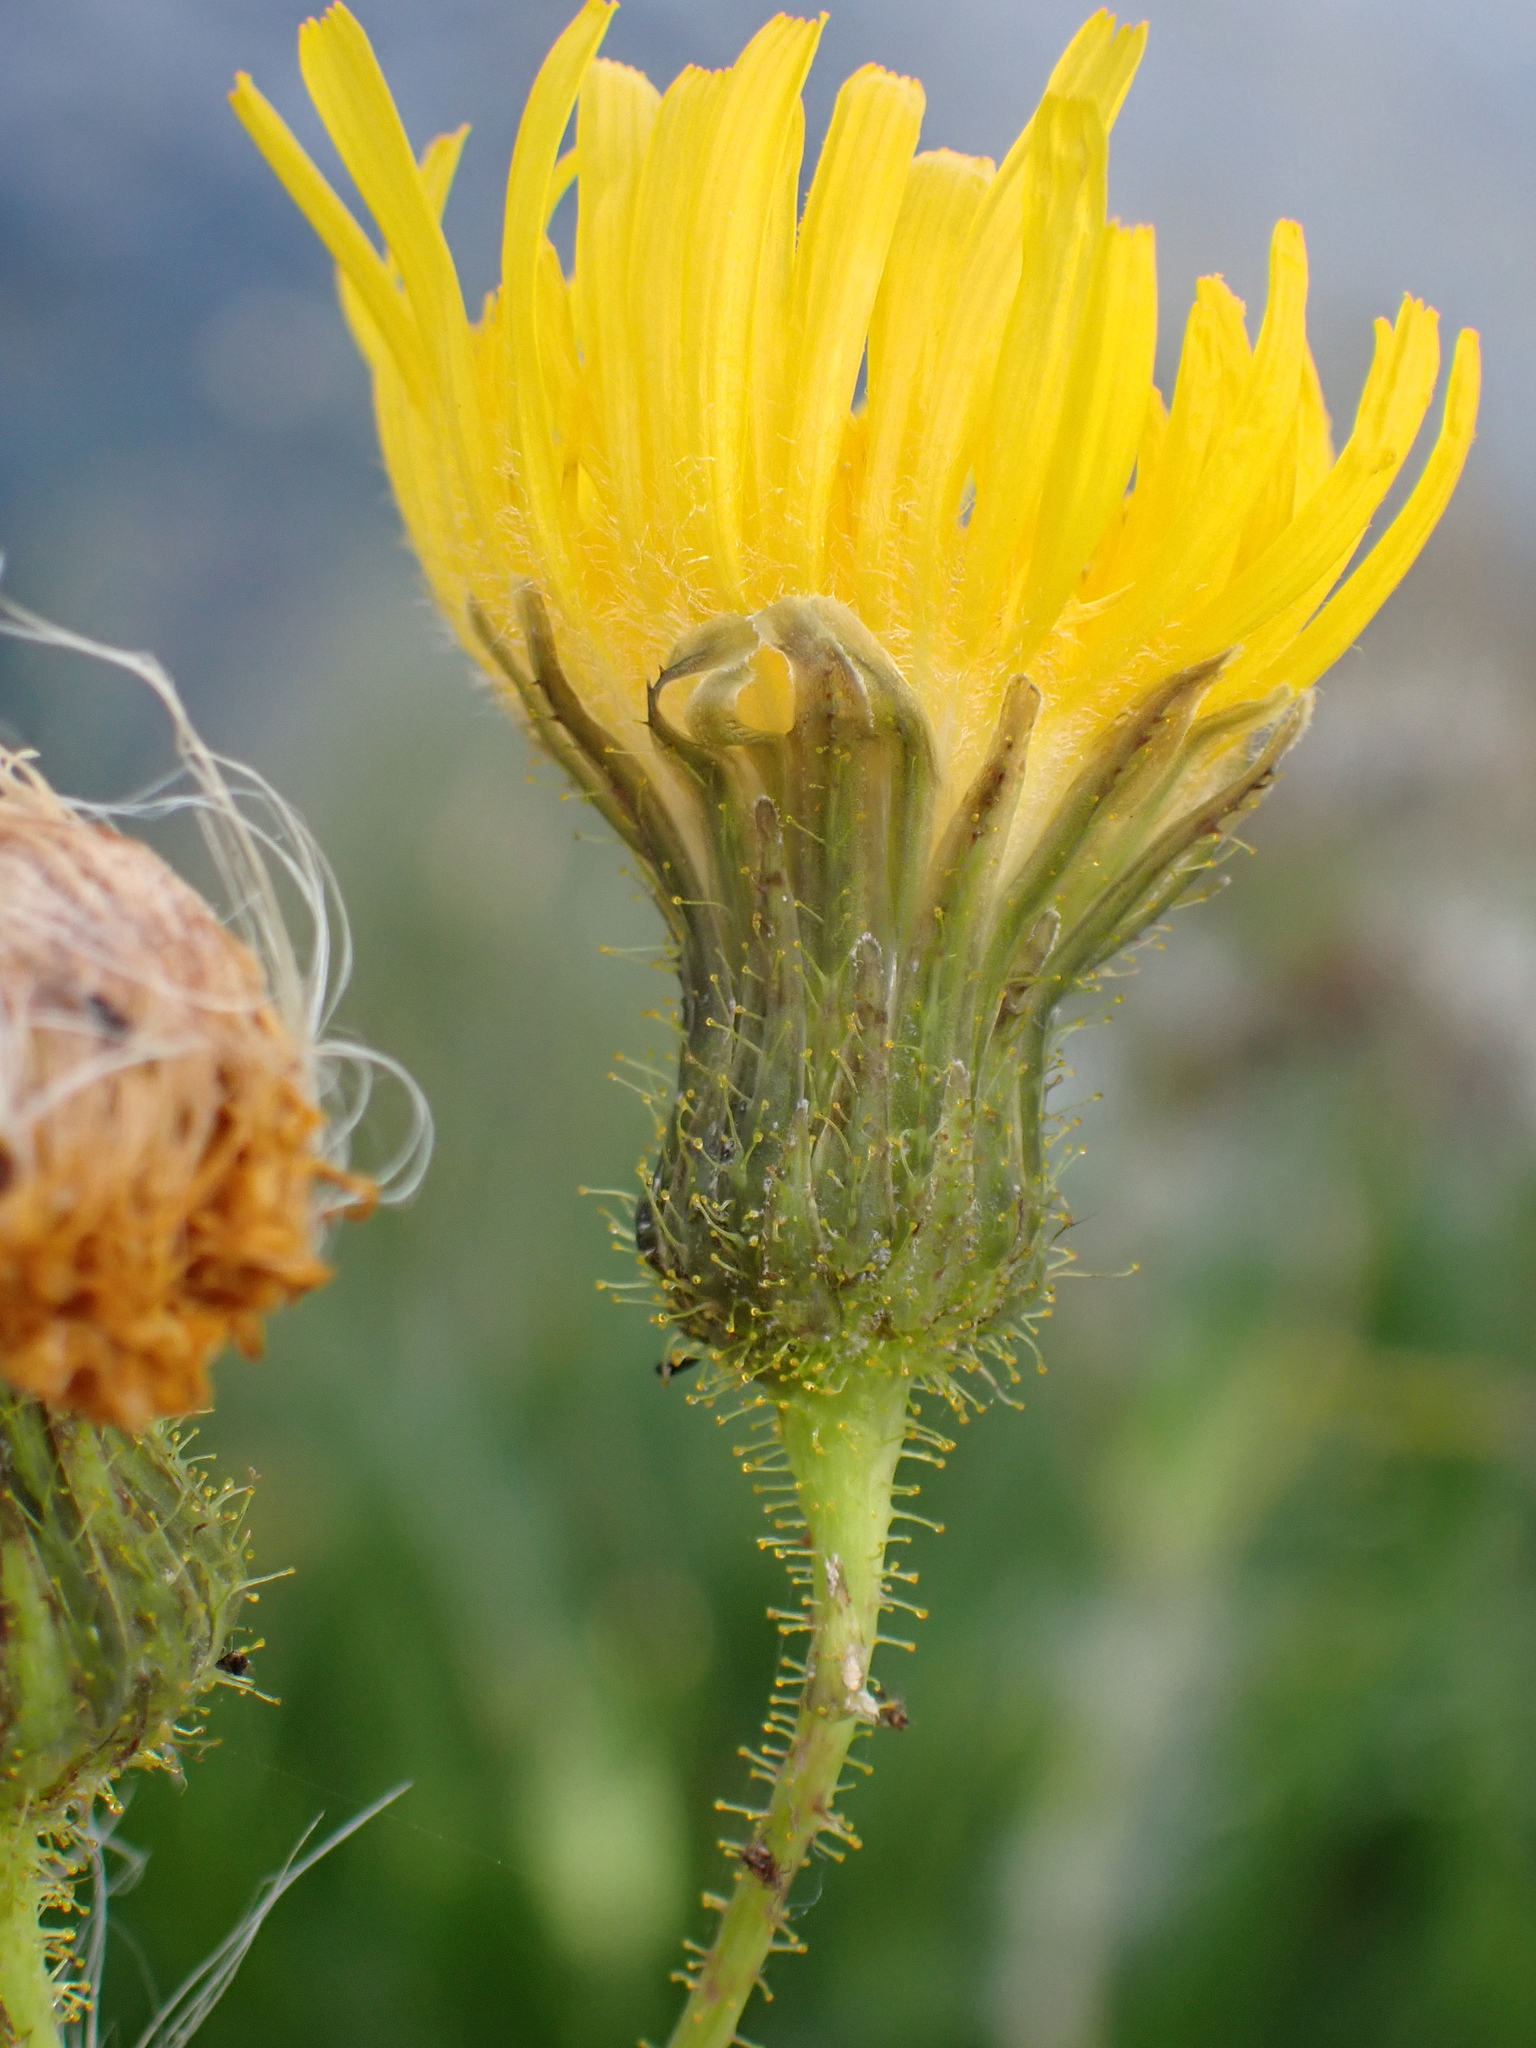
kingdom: Plantae
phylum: Tracheophyta
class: Magnoliopsida
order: Asterales
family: Asteraceae
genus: Sonchus
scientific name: Sonchus arvensis
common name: Perennial sow-thistle
